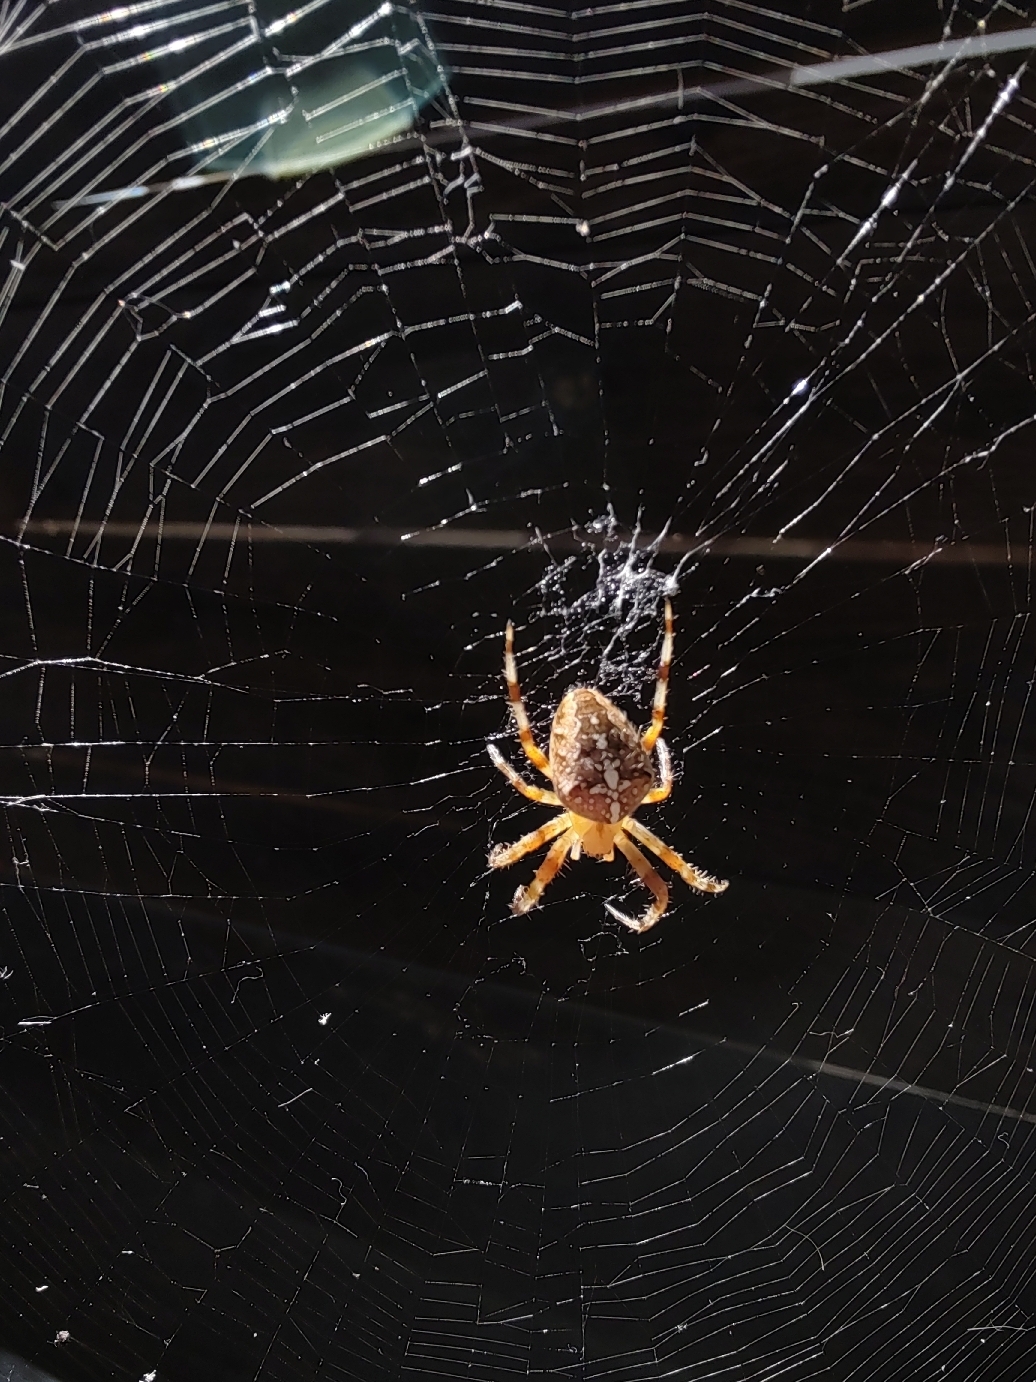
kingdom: Animalia
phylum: Arthropoda
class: Arachnida
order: Araneae
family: Araneidae
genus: Araneus
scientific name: Araneus diadematus
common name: Cross orbweaver
